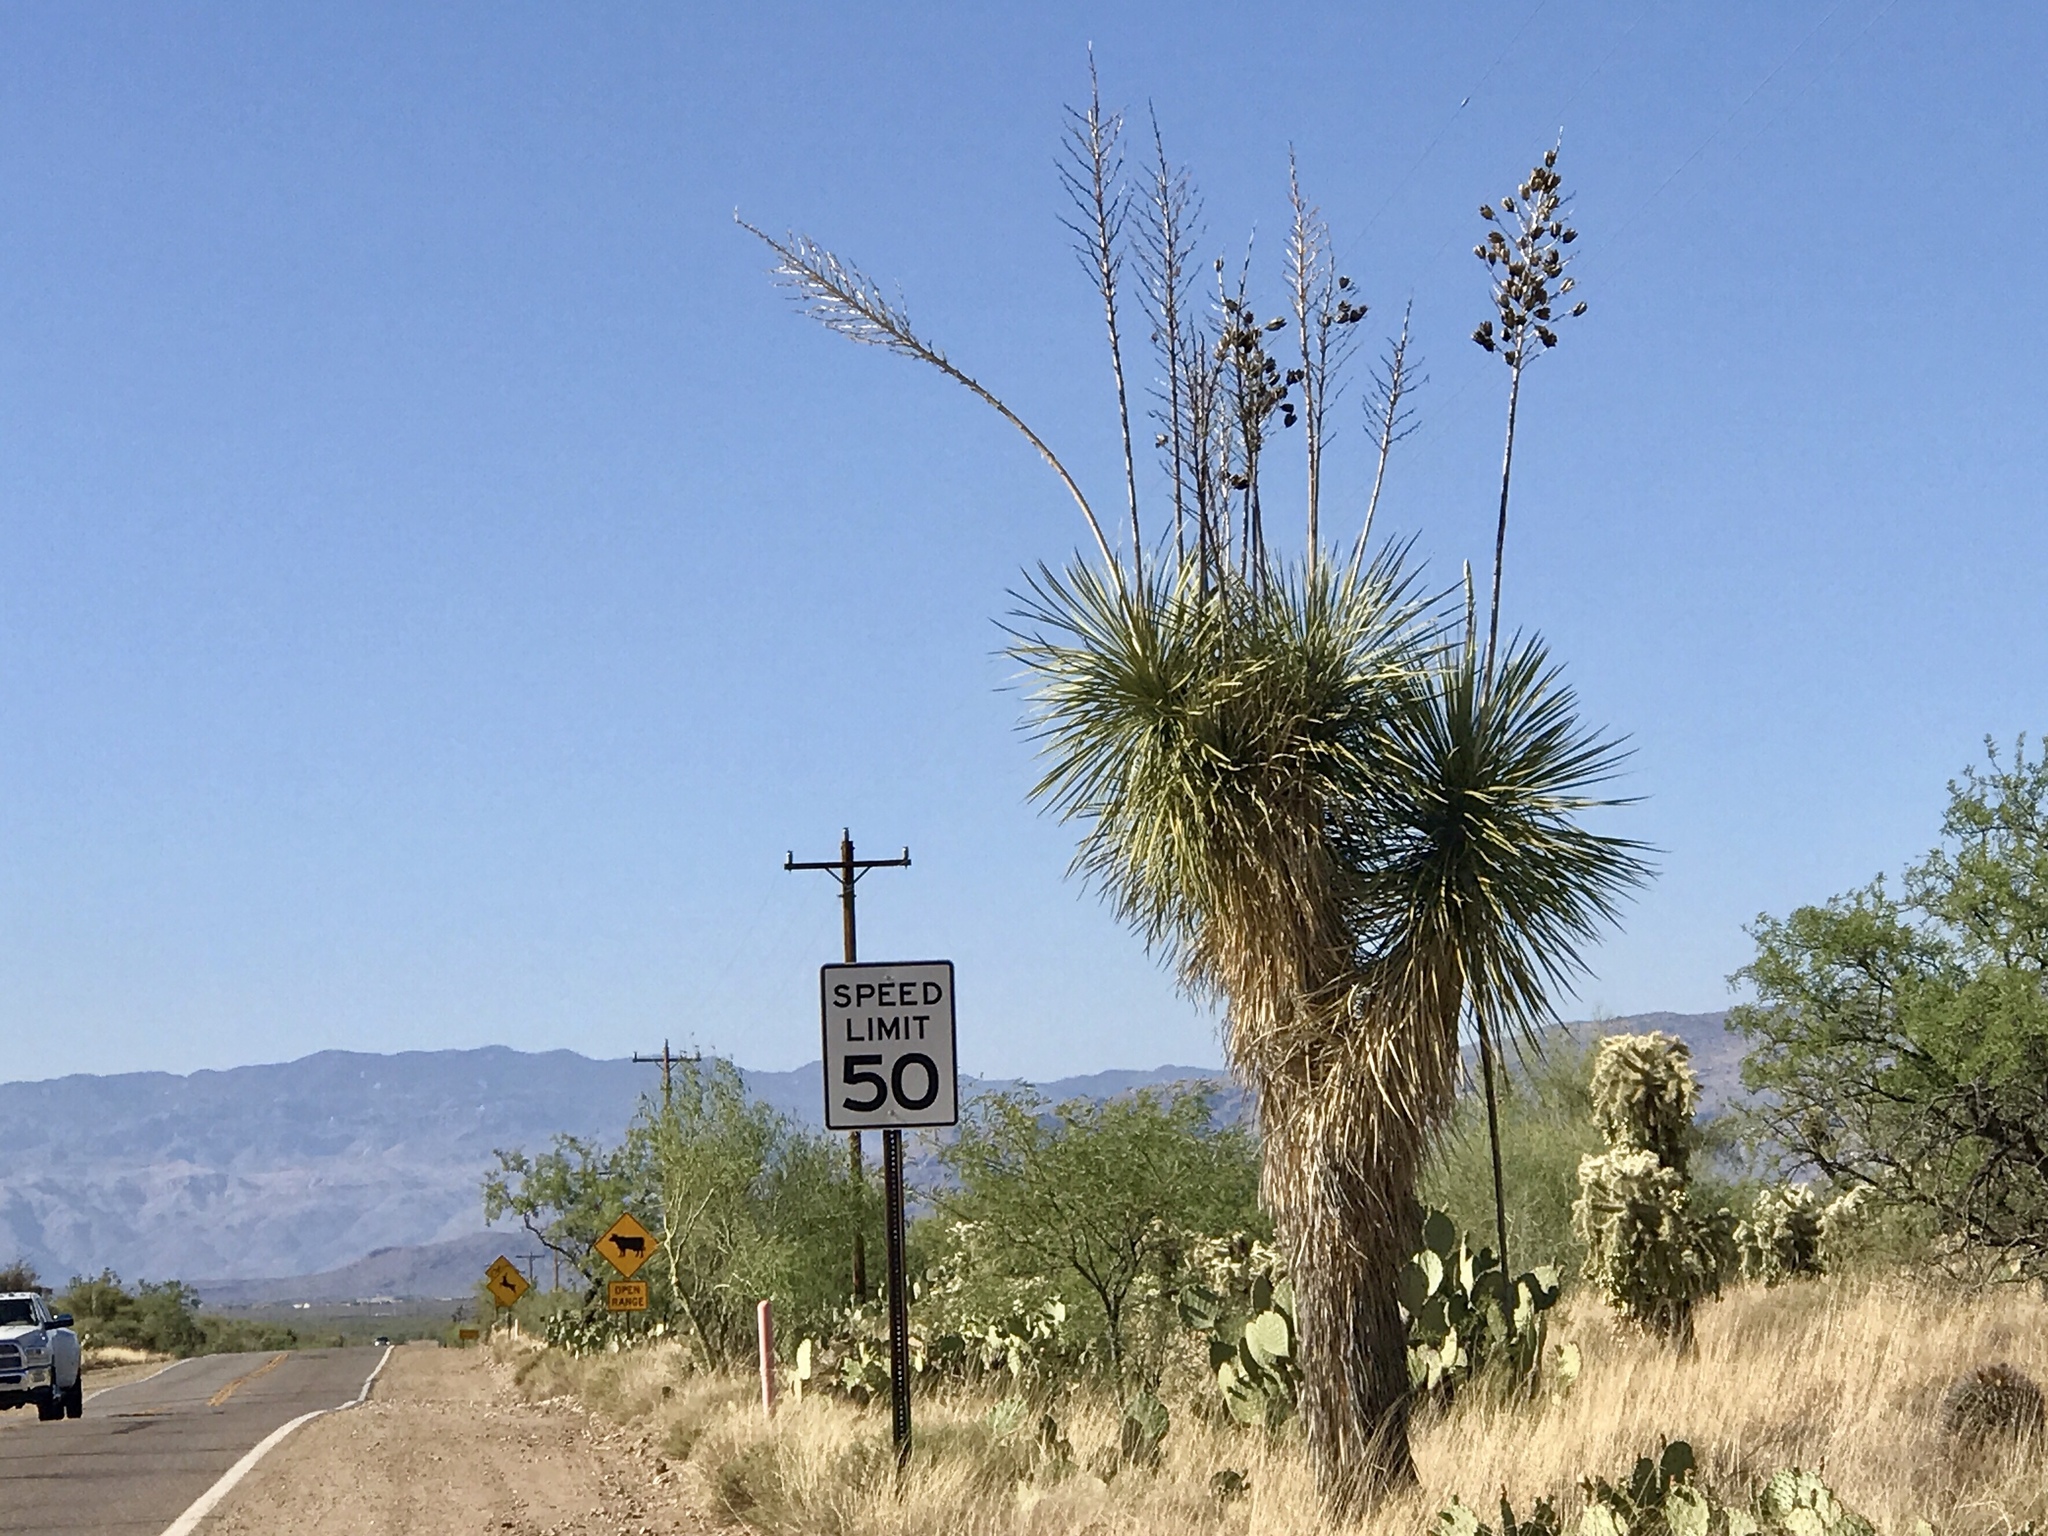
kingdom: Plantae
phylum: Tracheophyta
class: Liliopsida
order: Asparagales
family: Asparagaceae
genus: Yucca
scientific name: Yucca elata
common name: Palmella
